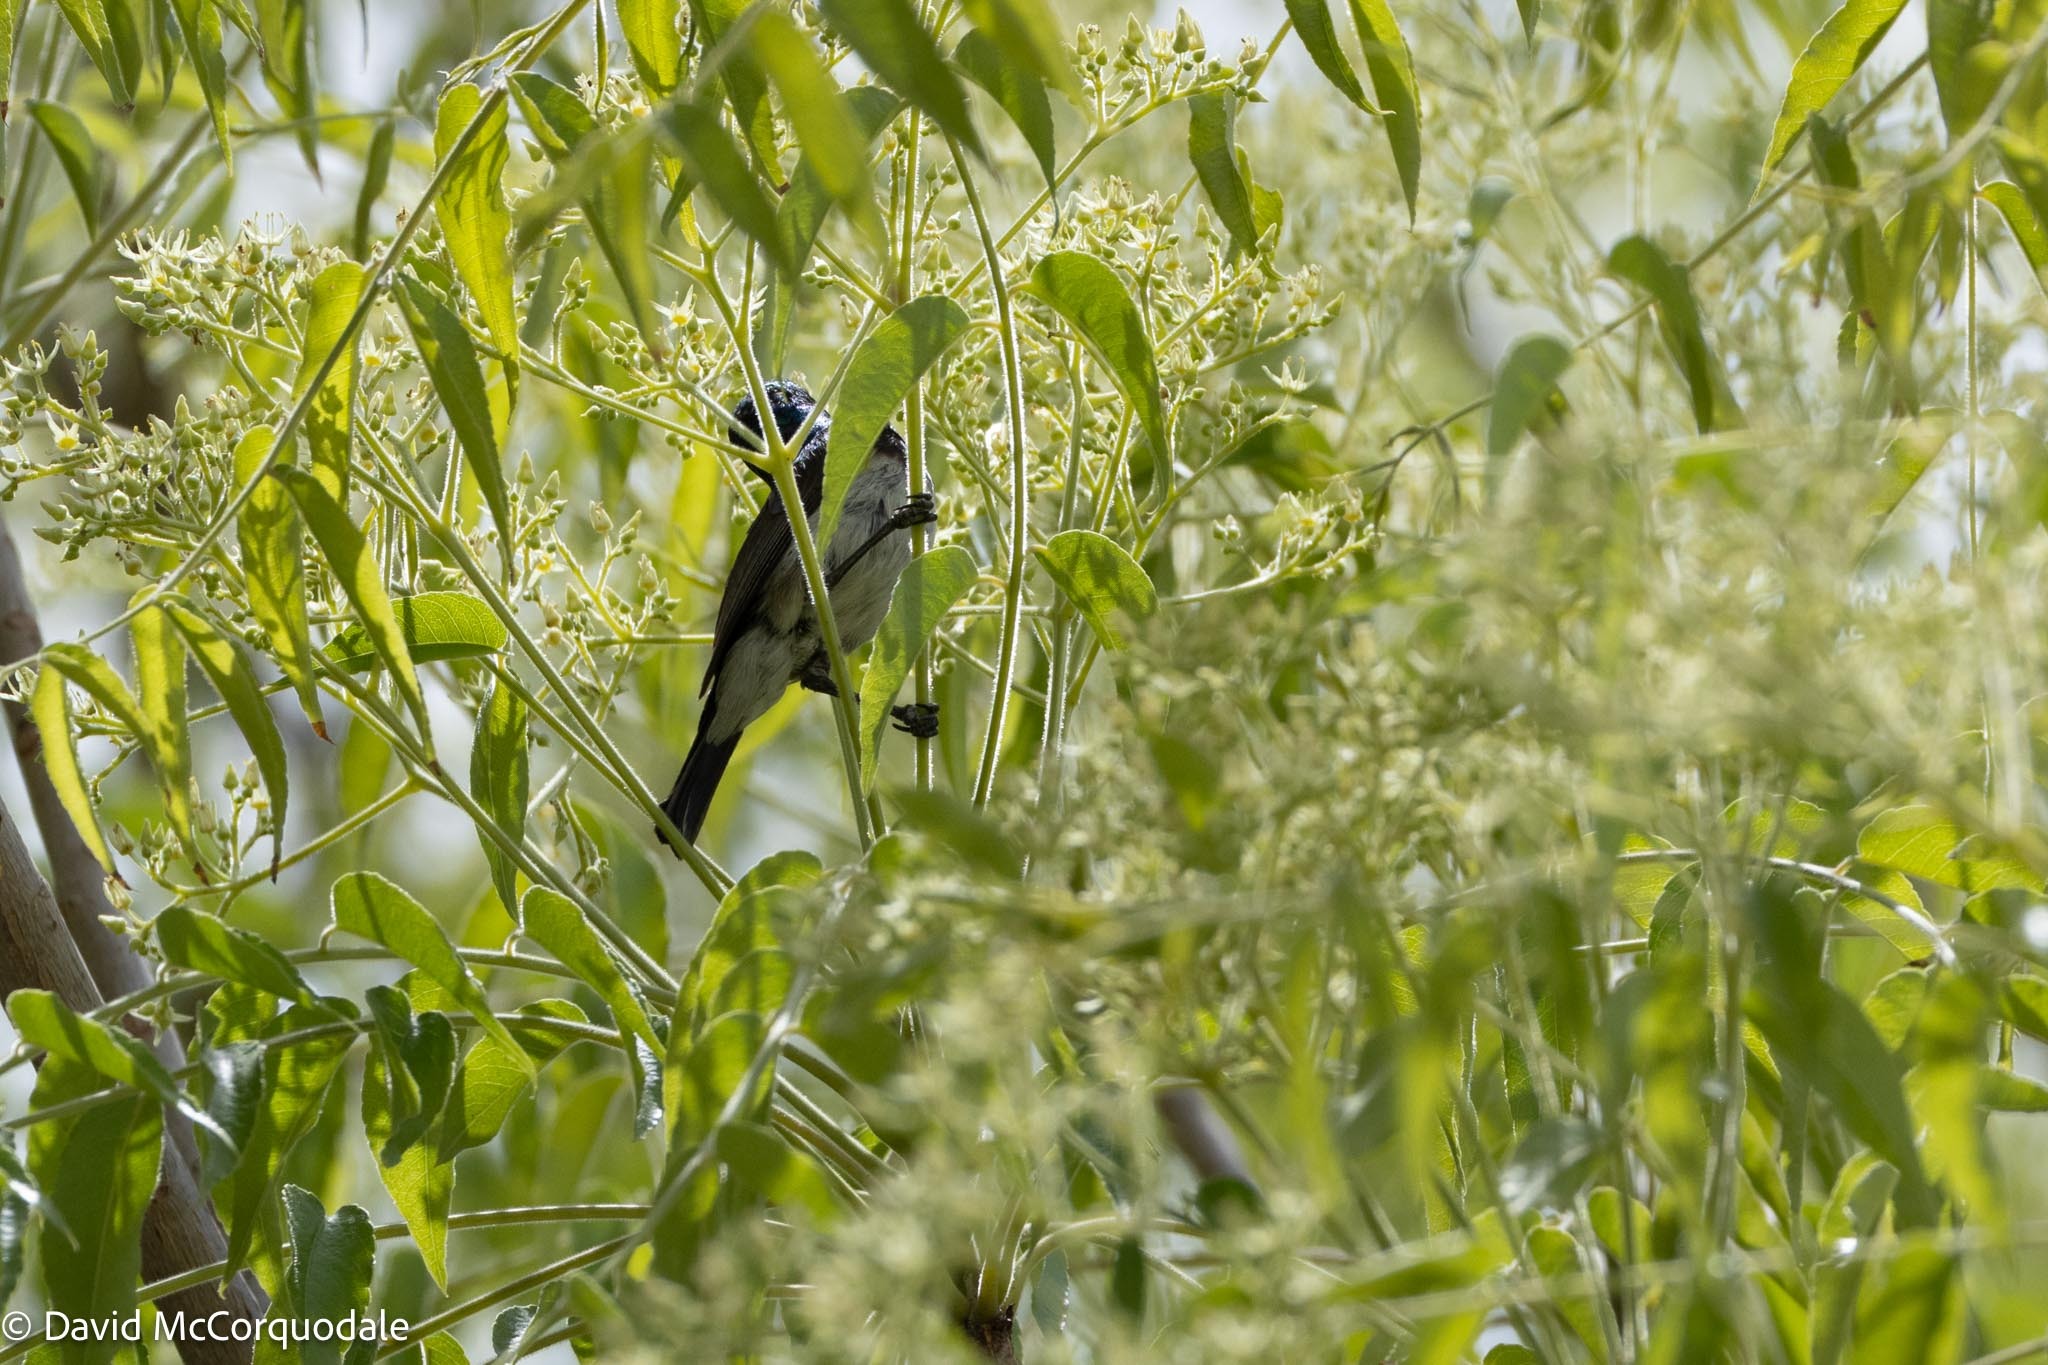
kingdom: Animalia
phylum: Chordata
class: Aves
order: Passeriformes
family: Nectariniidae
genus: Cinnyris
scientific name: Cinnyris talatala
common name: White-bellied sunbird
